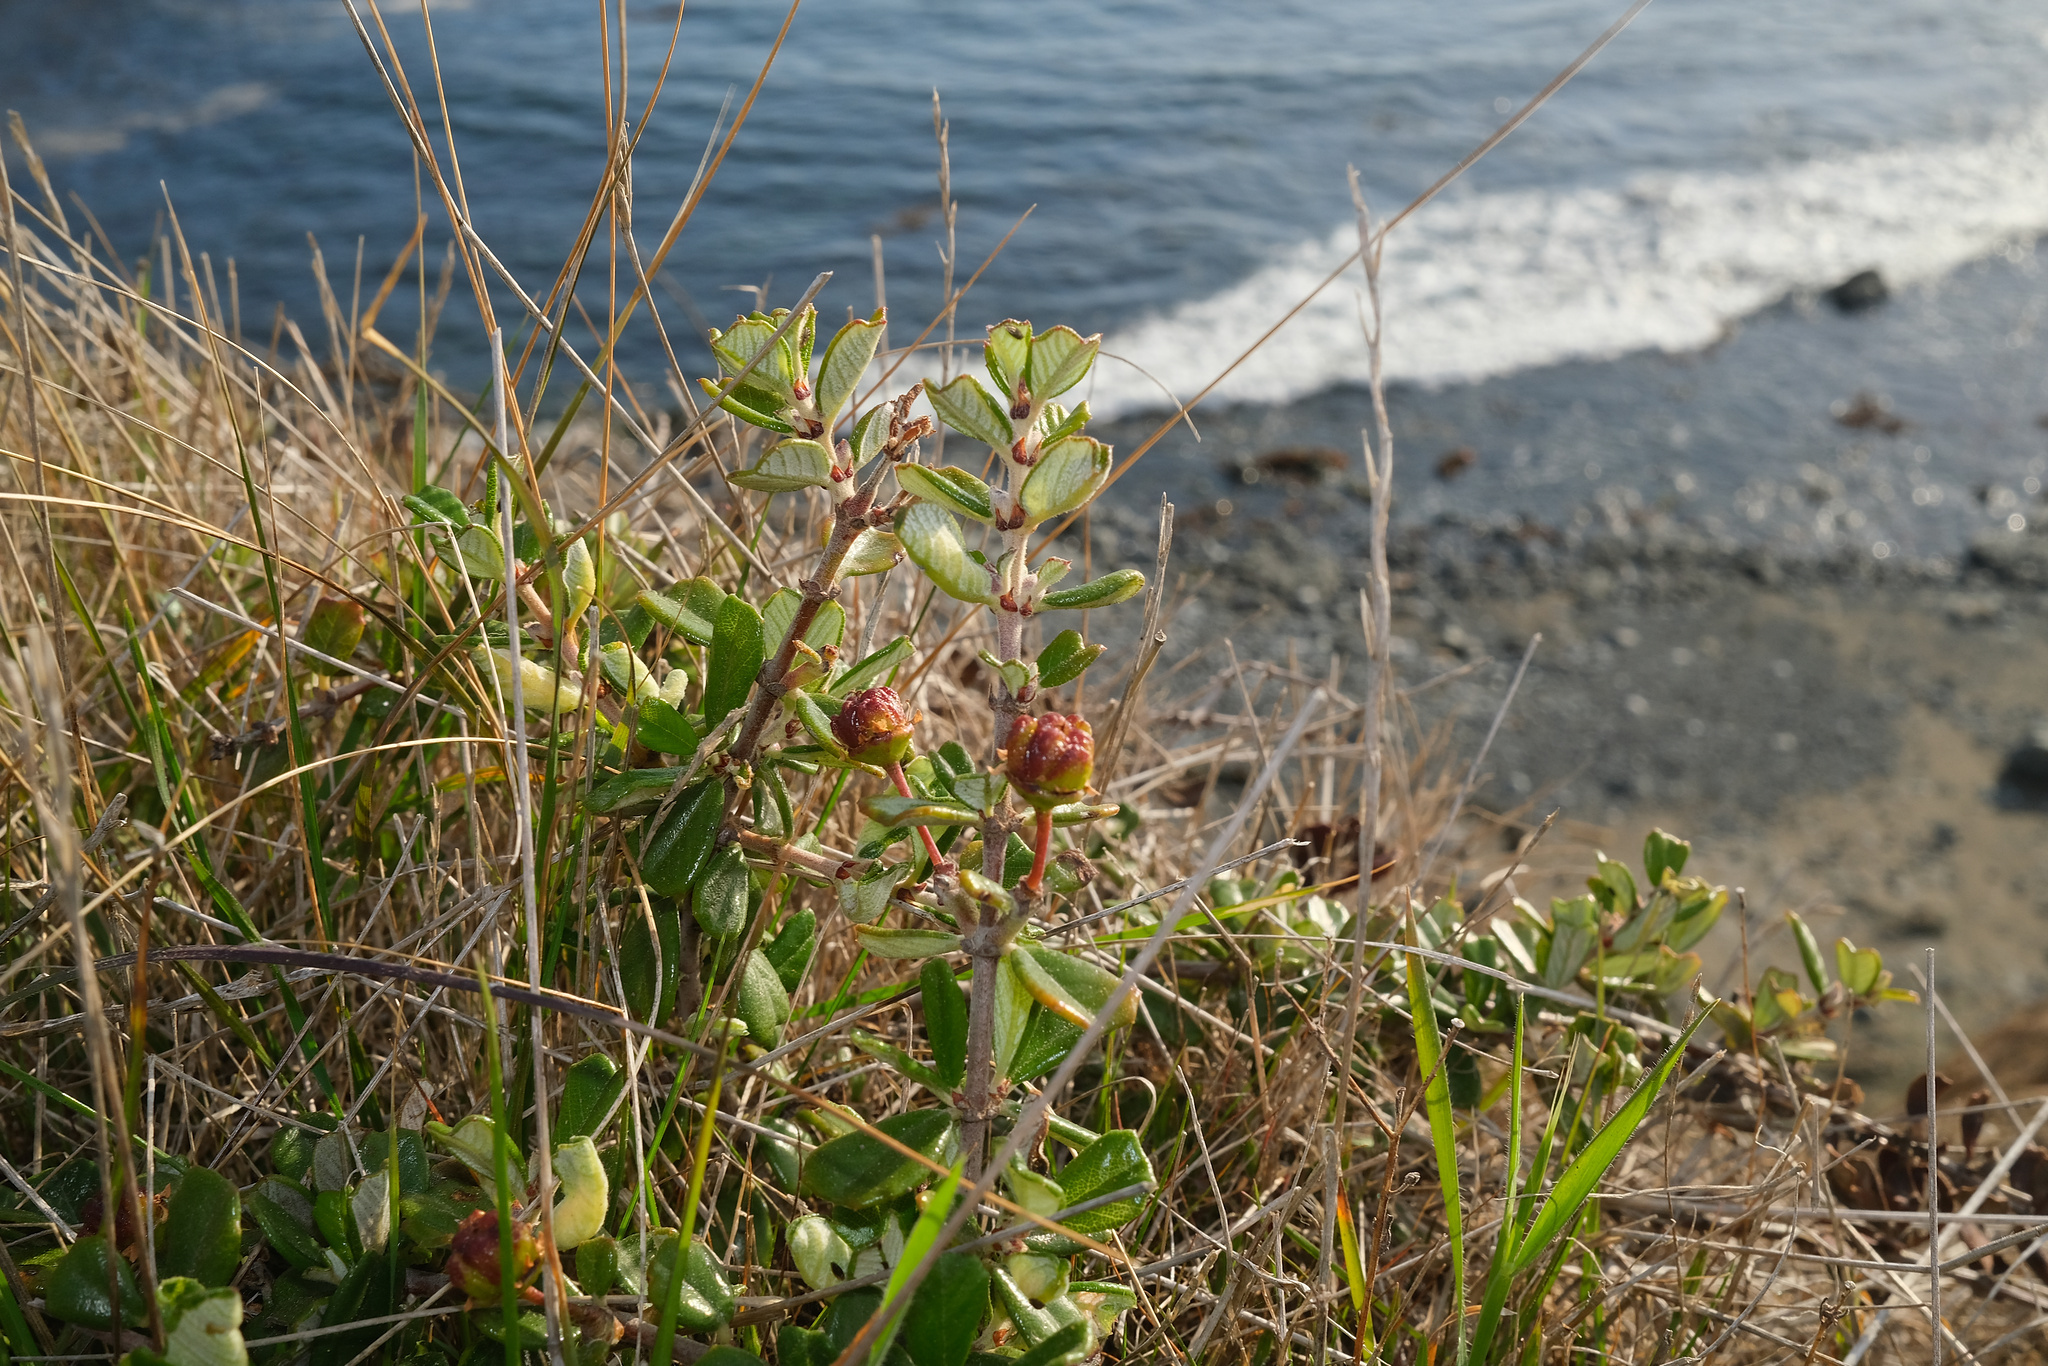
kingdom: Plantae
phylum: Tracheophyta
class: Magnoliopsida
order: Rosales
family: Rhamnaceae
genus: Ceanothus
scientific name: Ceanothus maritimus
